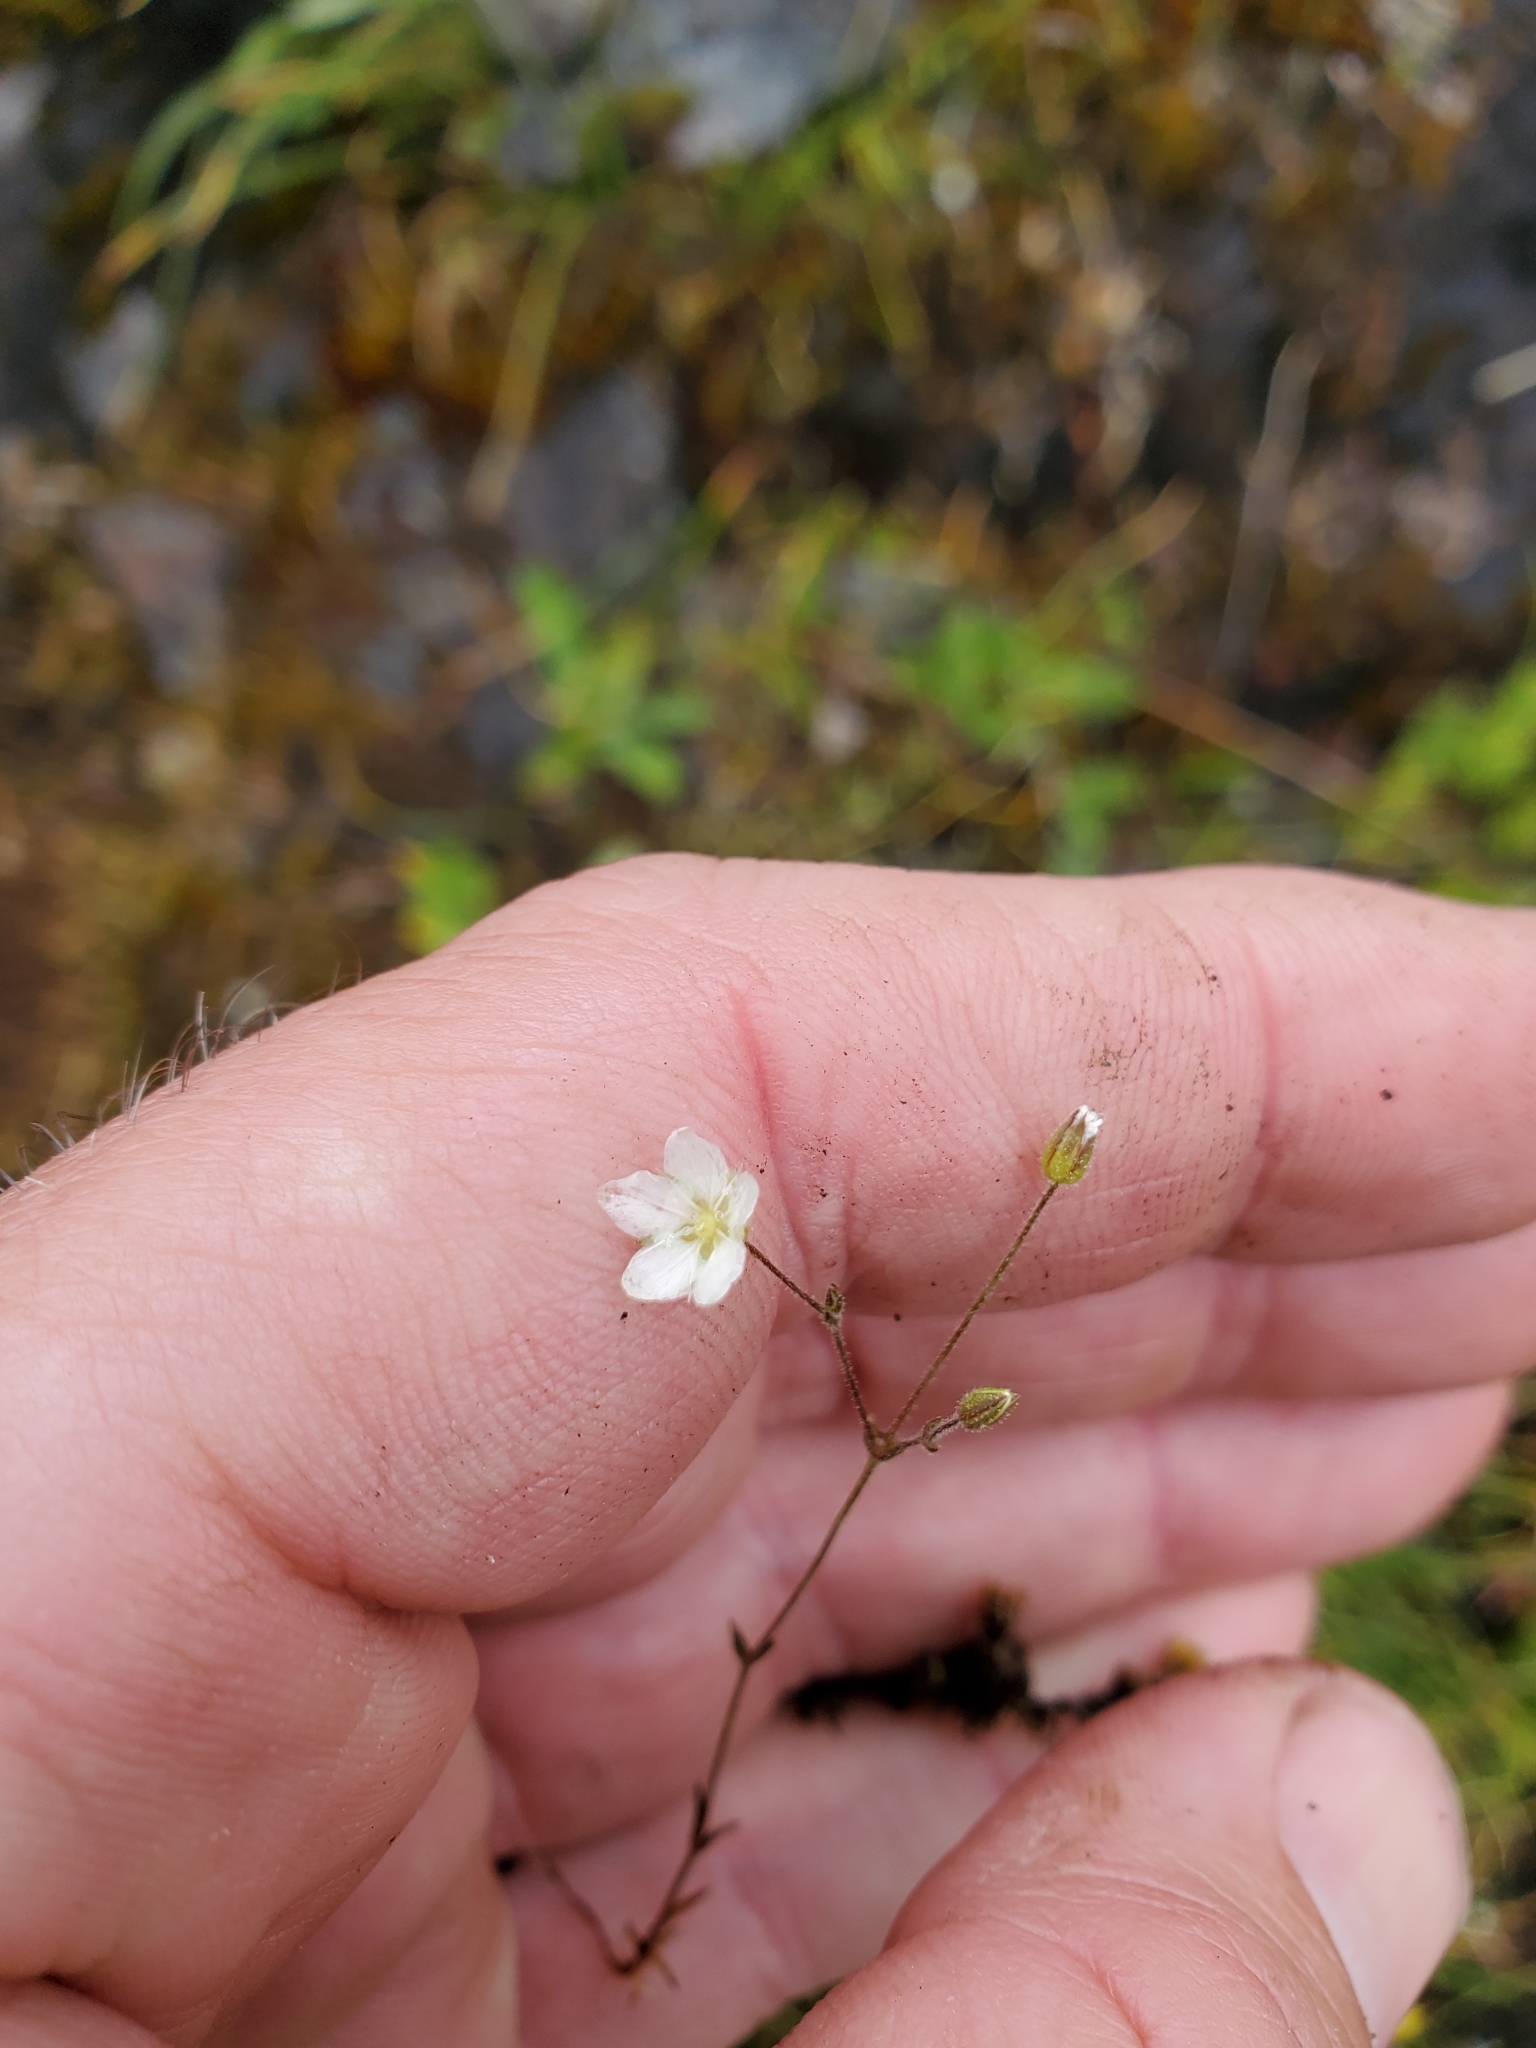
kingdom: Plantae
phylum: Tracheophyta
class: Magnoliopsida
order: Caryophyllales
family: Caryophyllaceae
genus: Sabulina
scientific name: Sabulina macra
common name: Slender sandwort
